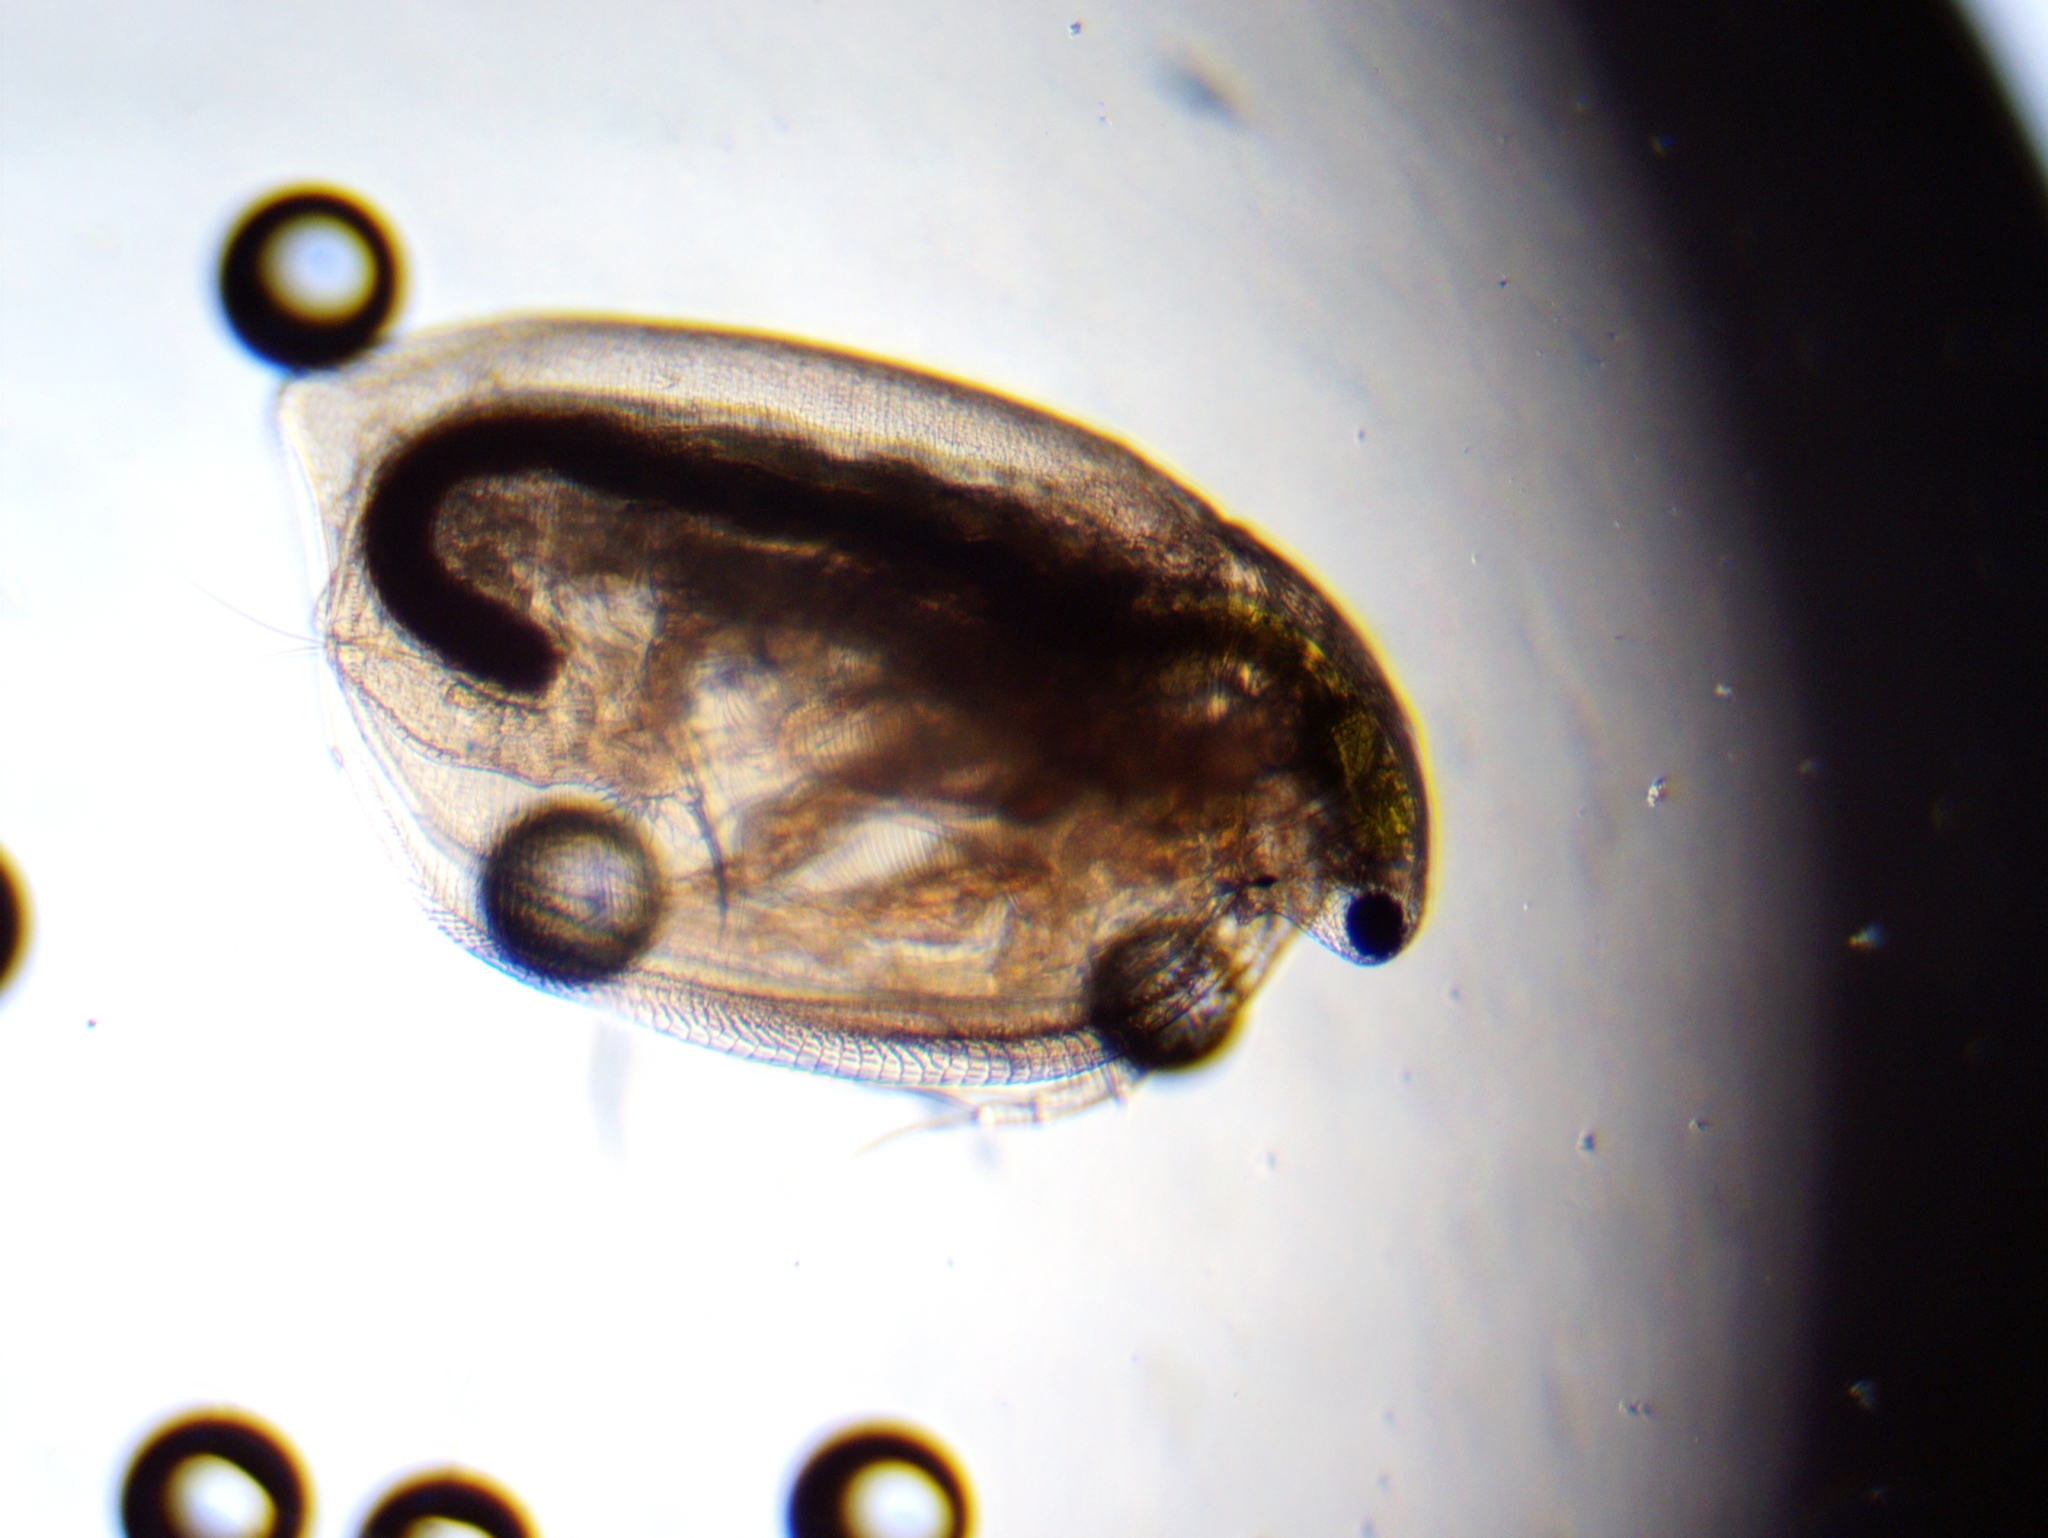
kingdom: Animalia
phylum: Arthropoda
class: Branchiopoda
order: Diplostraca
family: Daphniidae
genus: Simocephalus
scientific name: Simocephalus exspinosus
